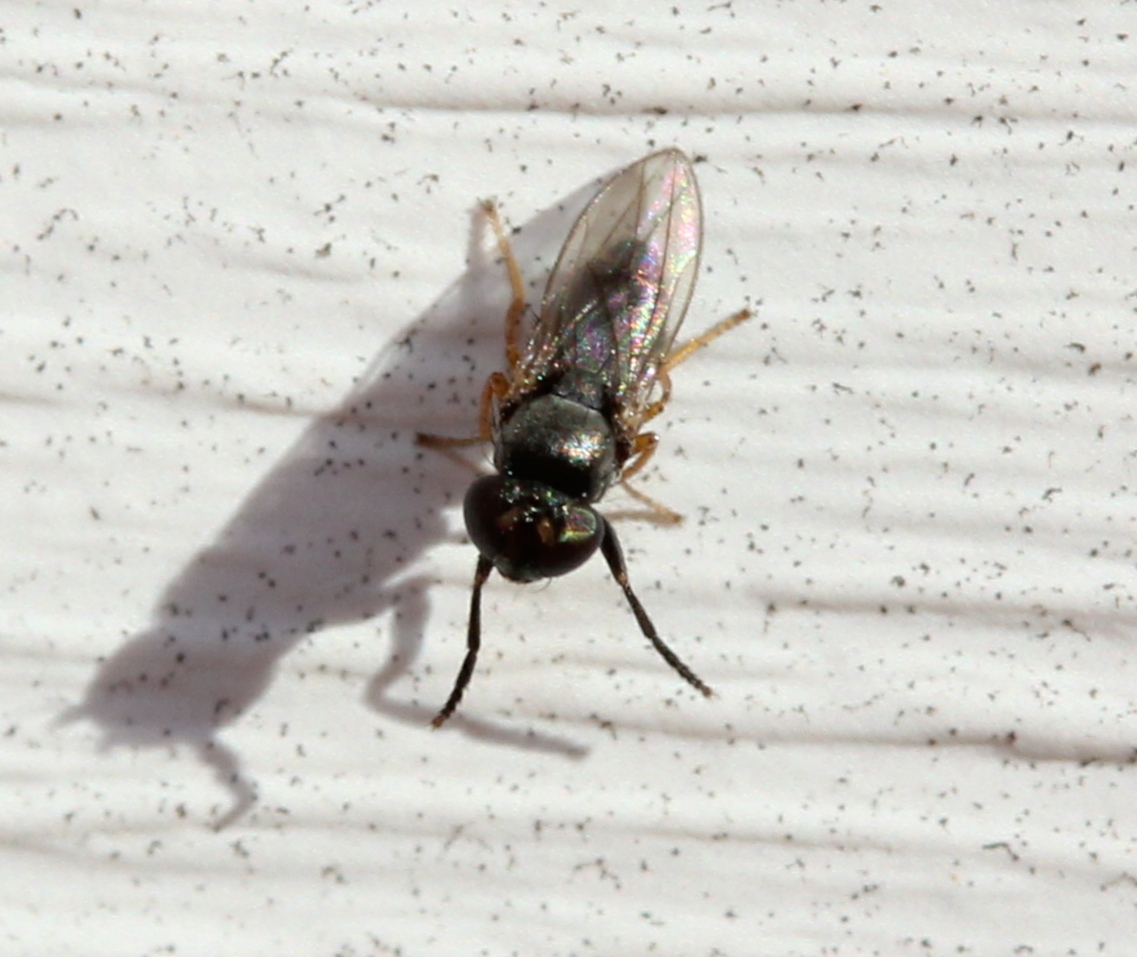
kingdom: Animalia
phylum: Arthropoda
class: Insecta
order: Diptera
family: Ephydridae
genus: Leptopsilopa
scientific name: Leptopsilopa atrimanus
